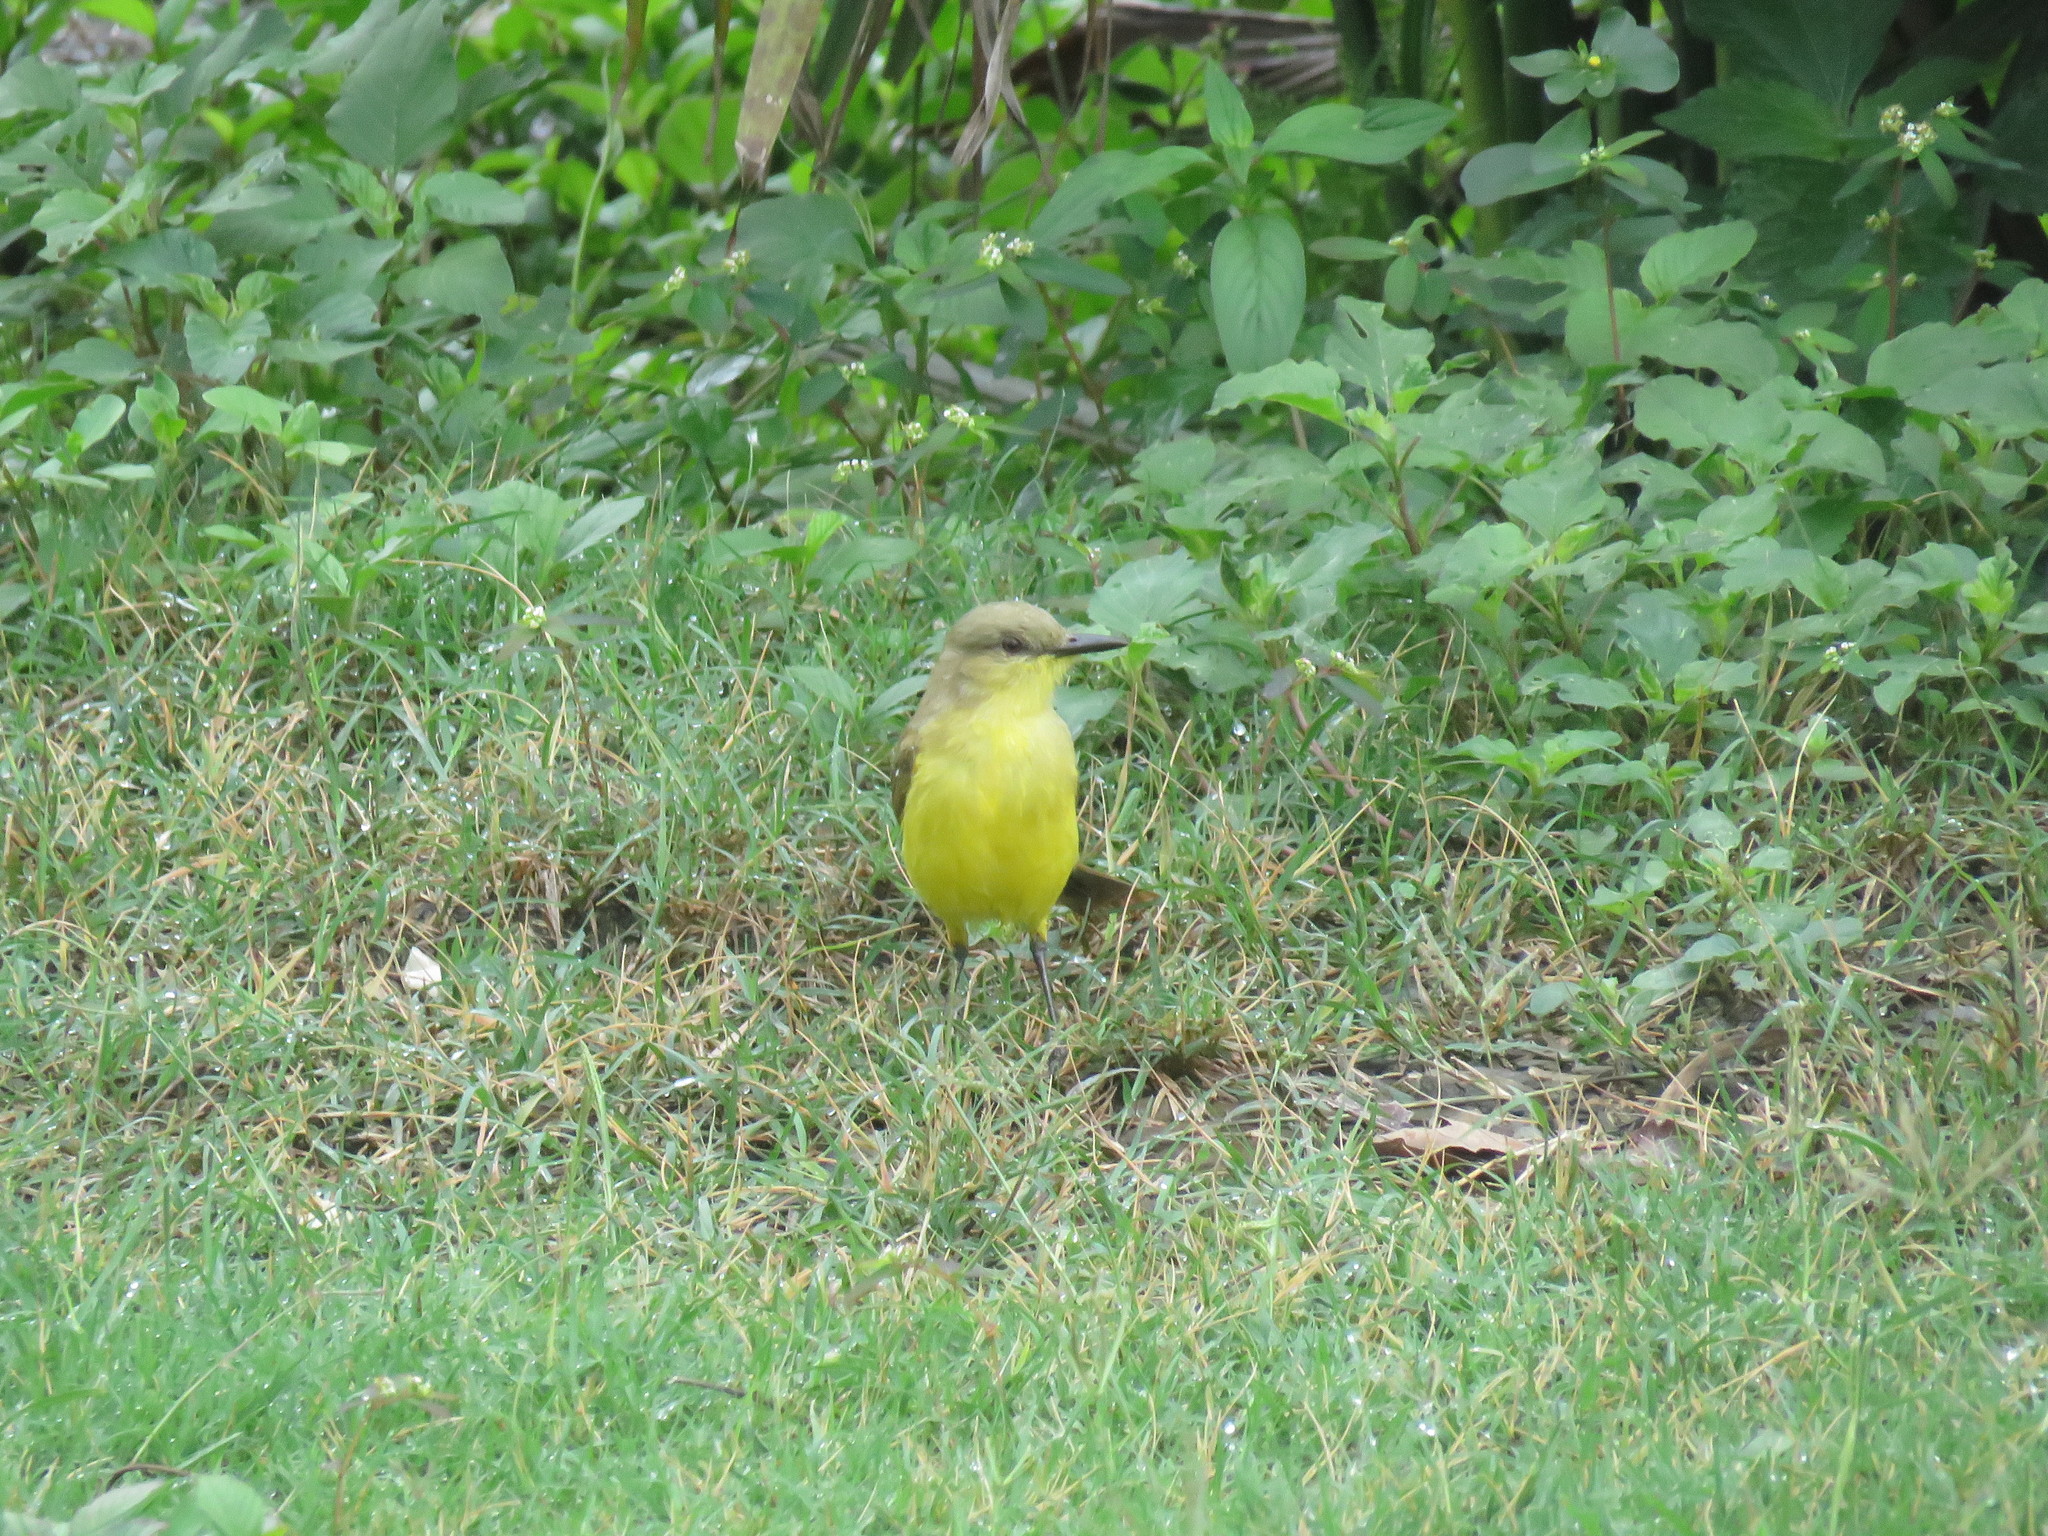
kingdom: Animalia
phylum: Chordata
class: Aves
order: Passeriformes
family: Tyrannidae
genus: Machetornis
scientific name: Machetornis rixosa
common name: Cattle tyrant
